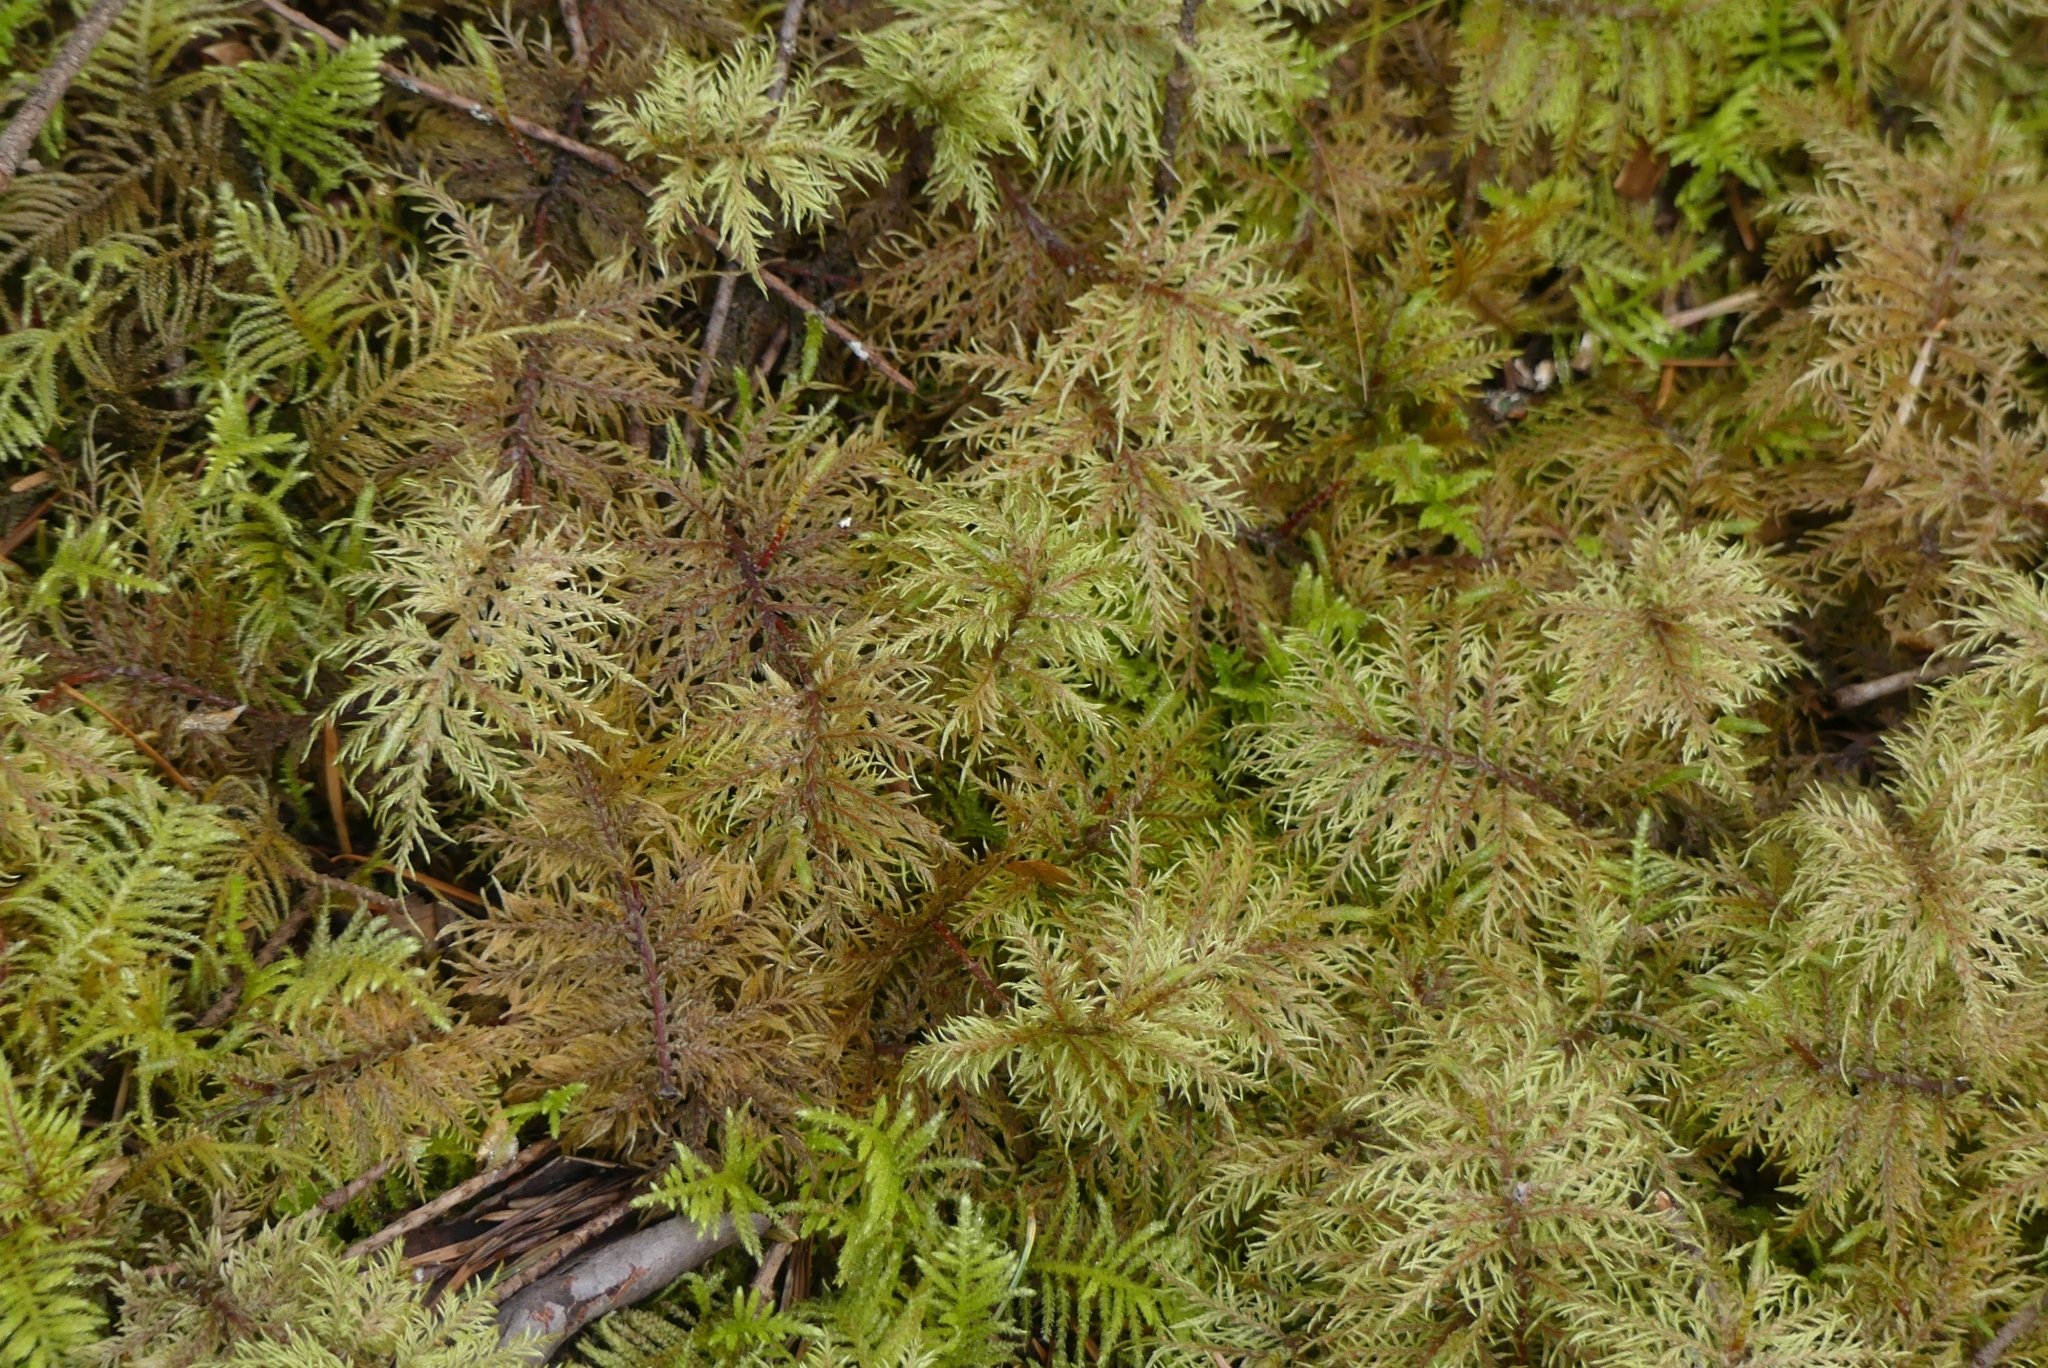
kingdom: Plantae
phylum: Bryophyta
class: Bryopsida
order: Hypnales
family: Hylocomiaceae
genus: Hylocomium
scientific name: Hylocomium splendens
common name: Stairstep moss
